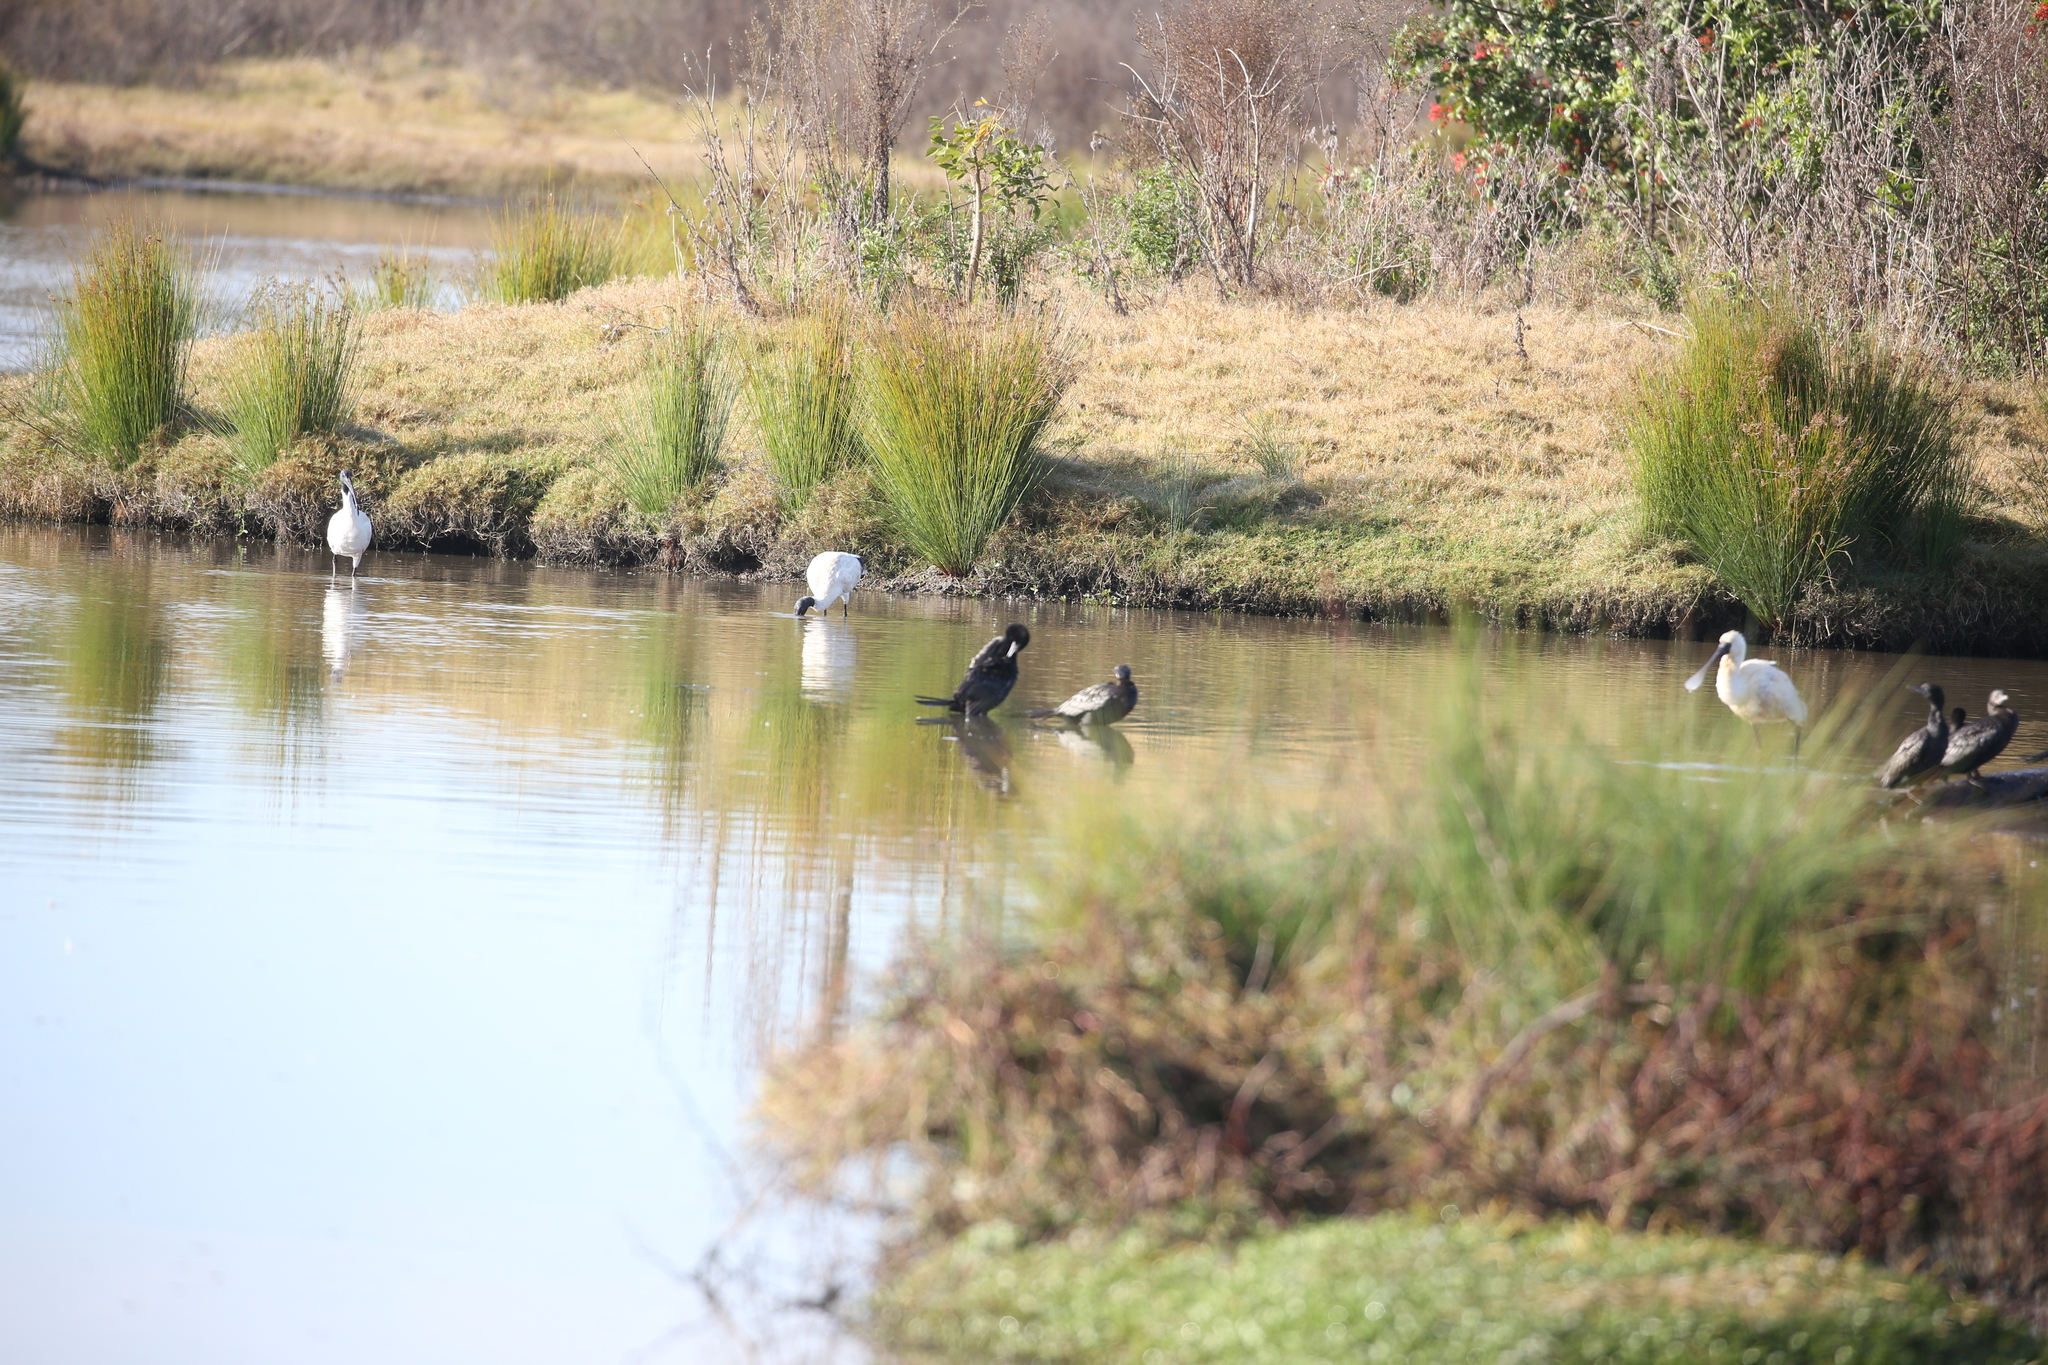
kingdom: Animalia
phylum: Chordata
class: Aves
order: Pelecaniformes
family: Threskiornithidae
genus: Platalea
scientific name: Platalea regia
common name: Royal spoonbill
